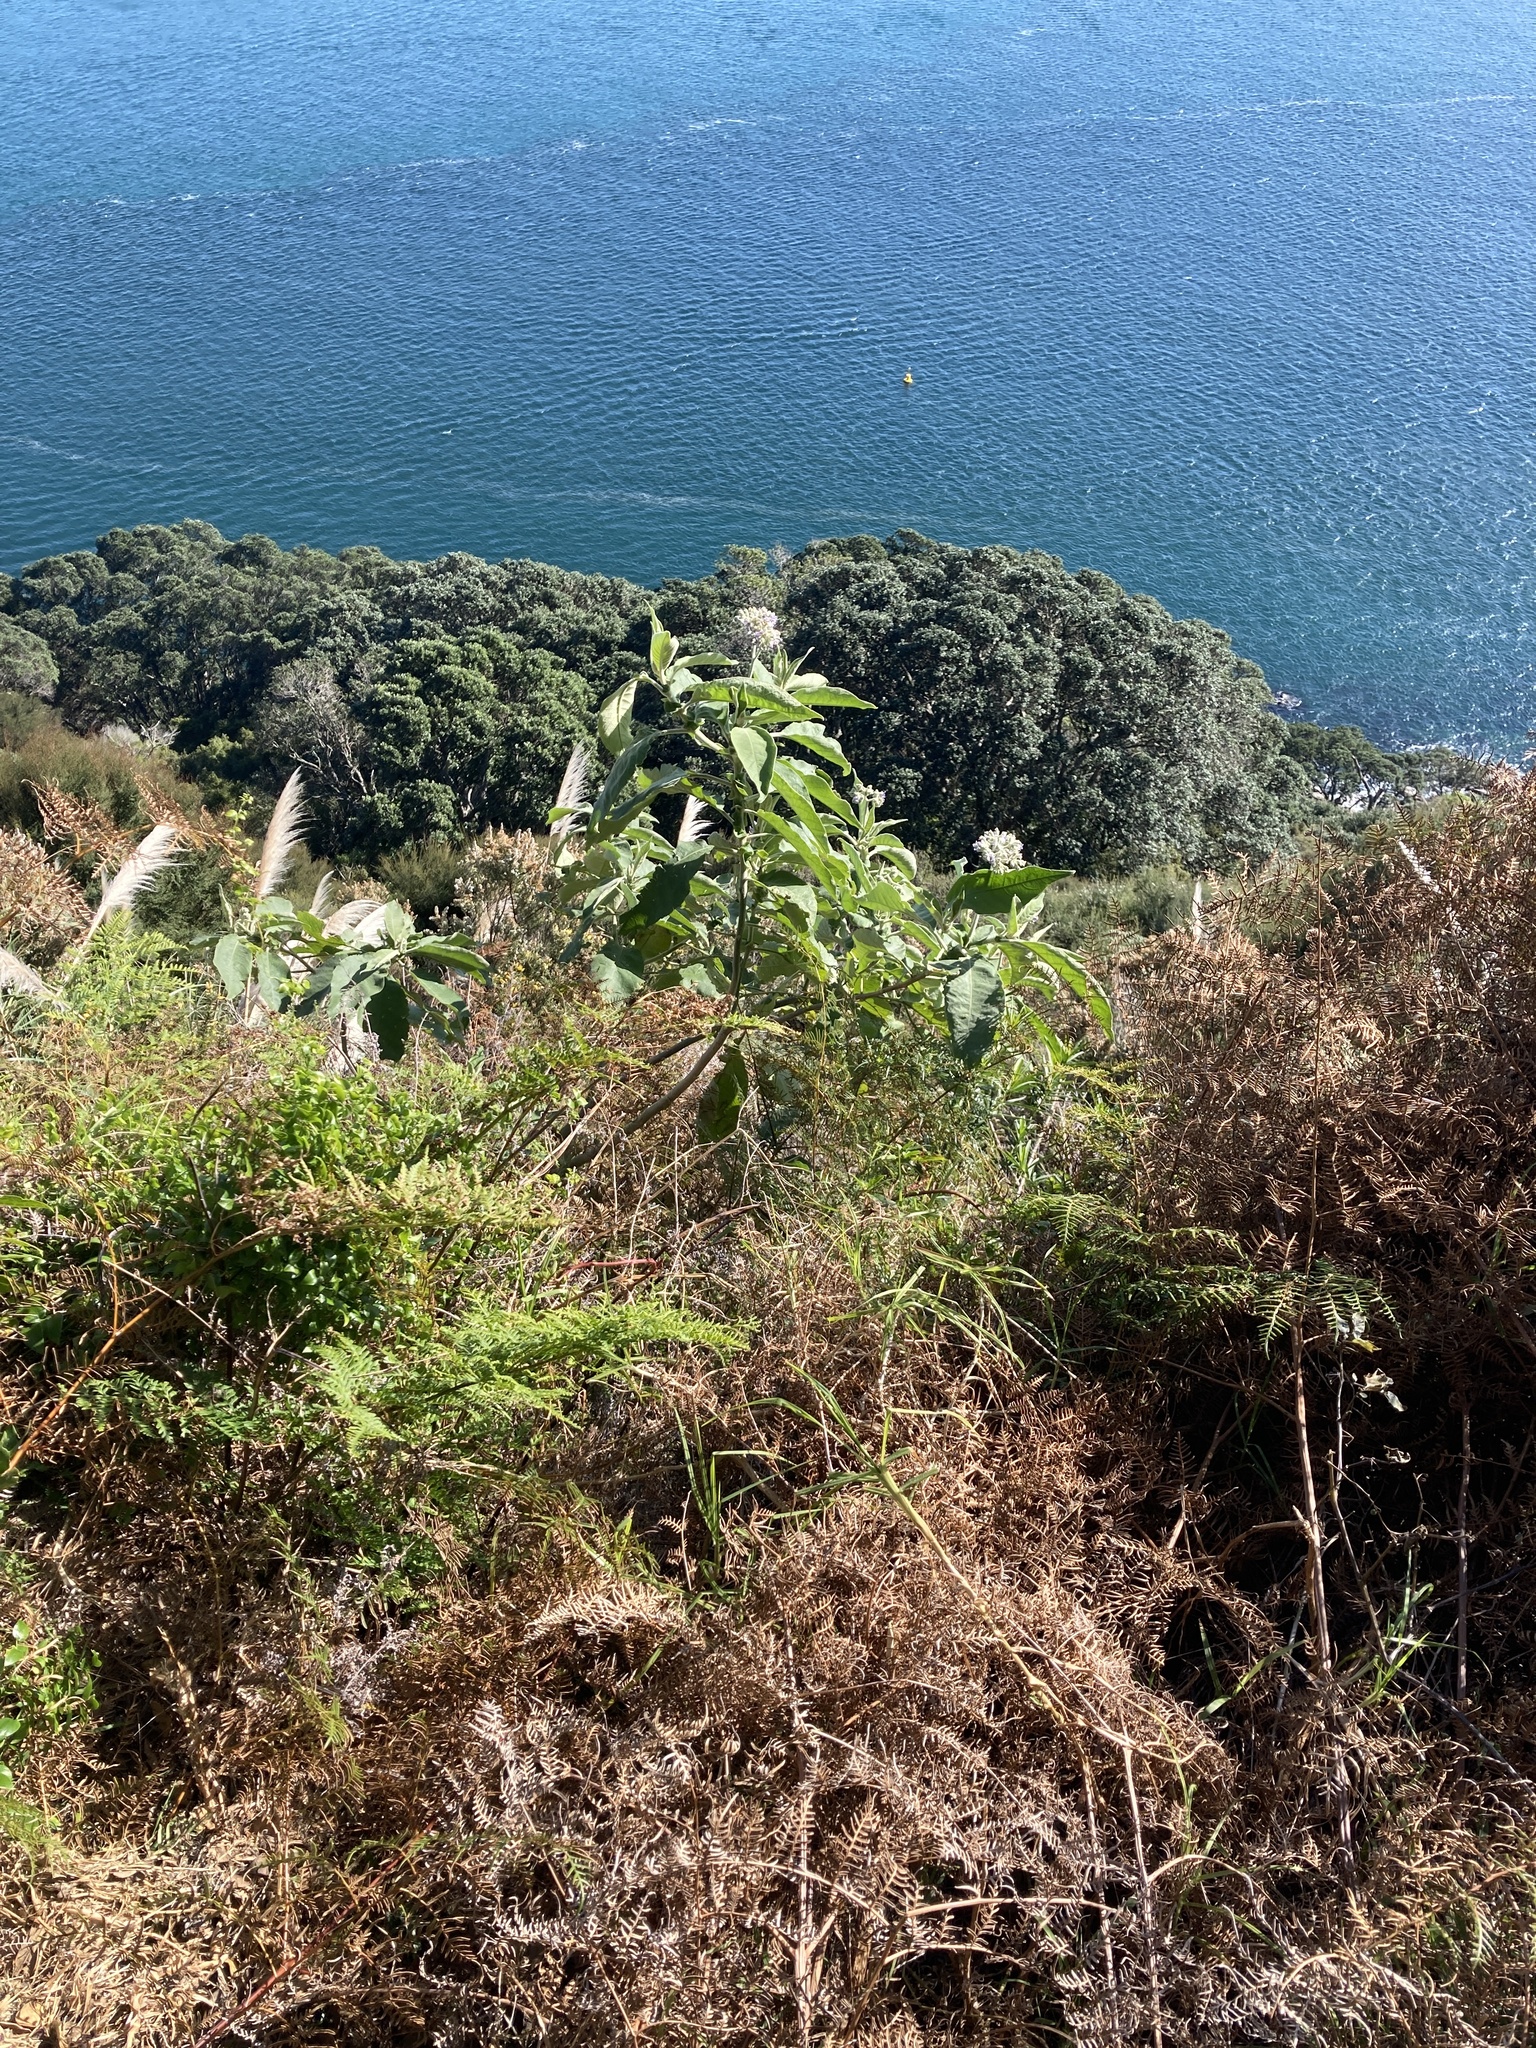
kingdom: Plantae
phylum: Tracheophyta
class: Magnoliopsida
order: Solanales
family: Solanaceae
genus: Solanum
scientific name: Solanum mauritianum
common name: Earleaf nightshade
